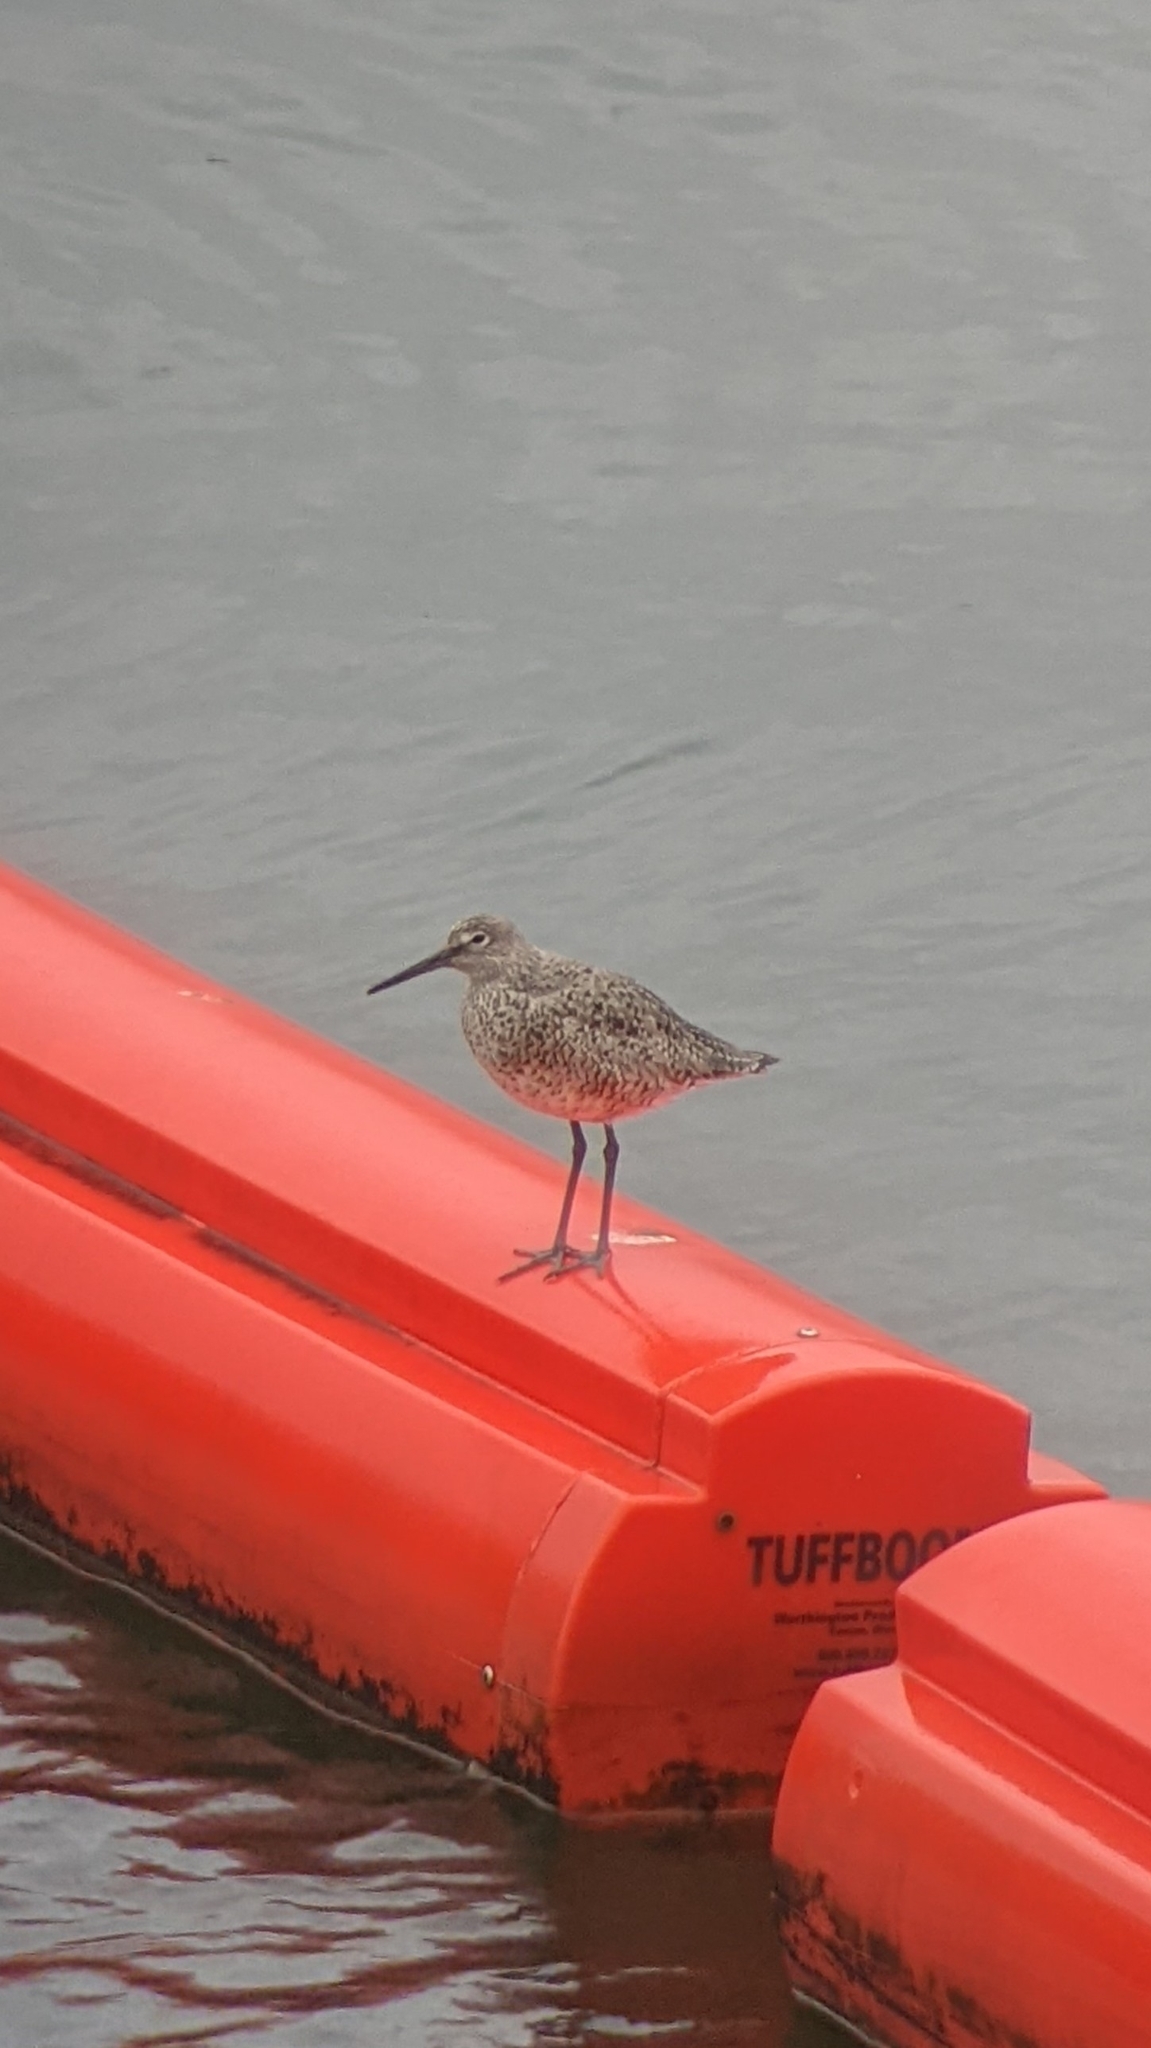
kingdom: Animalia
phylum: Chordata
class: Aves
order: Charadriiformes
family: Scolopacidae
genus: Tringa
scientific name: Tringa semipalmata
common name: Willet
